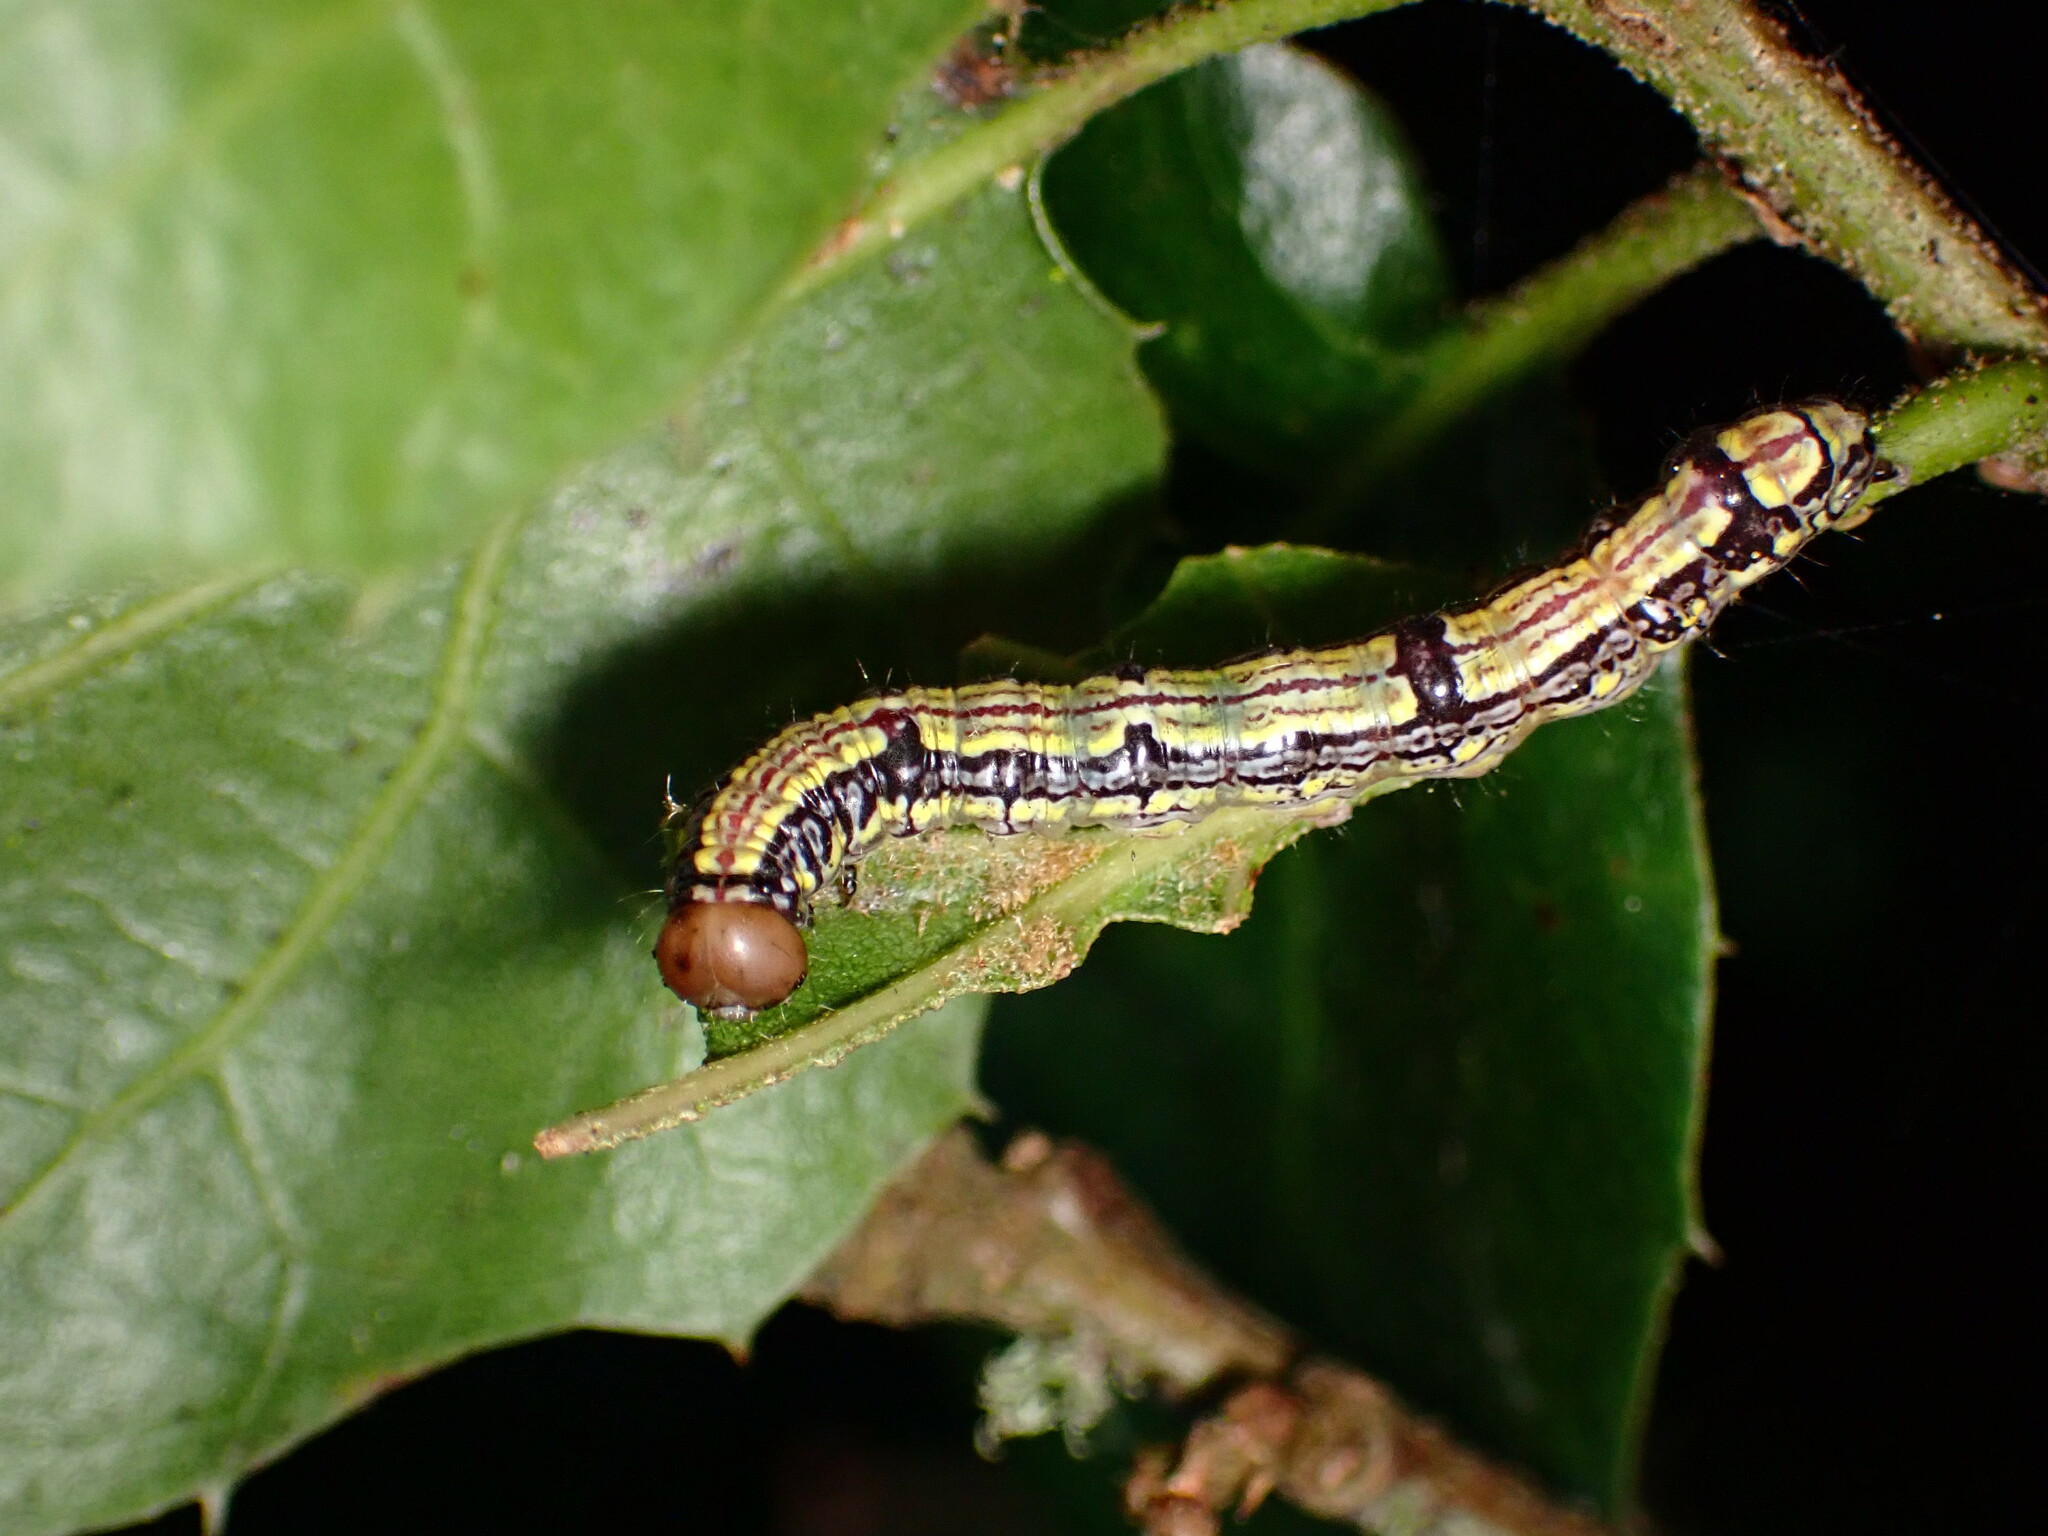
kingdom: Animalia
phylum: Arthropoda
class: Insecta
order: Lepidoptera
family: Notodontidae
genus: Phryganidia
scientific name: Phryganidia californica
